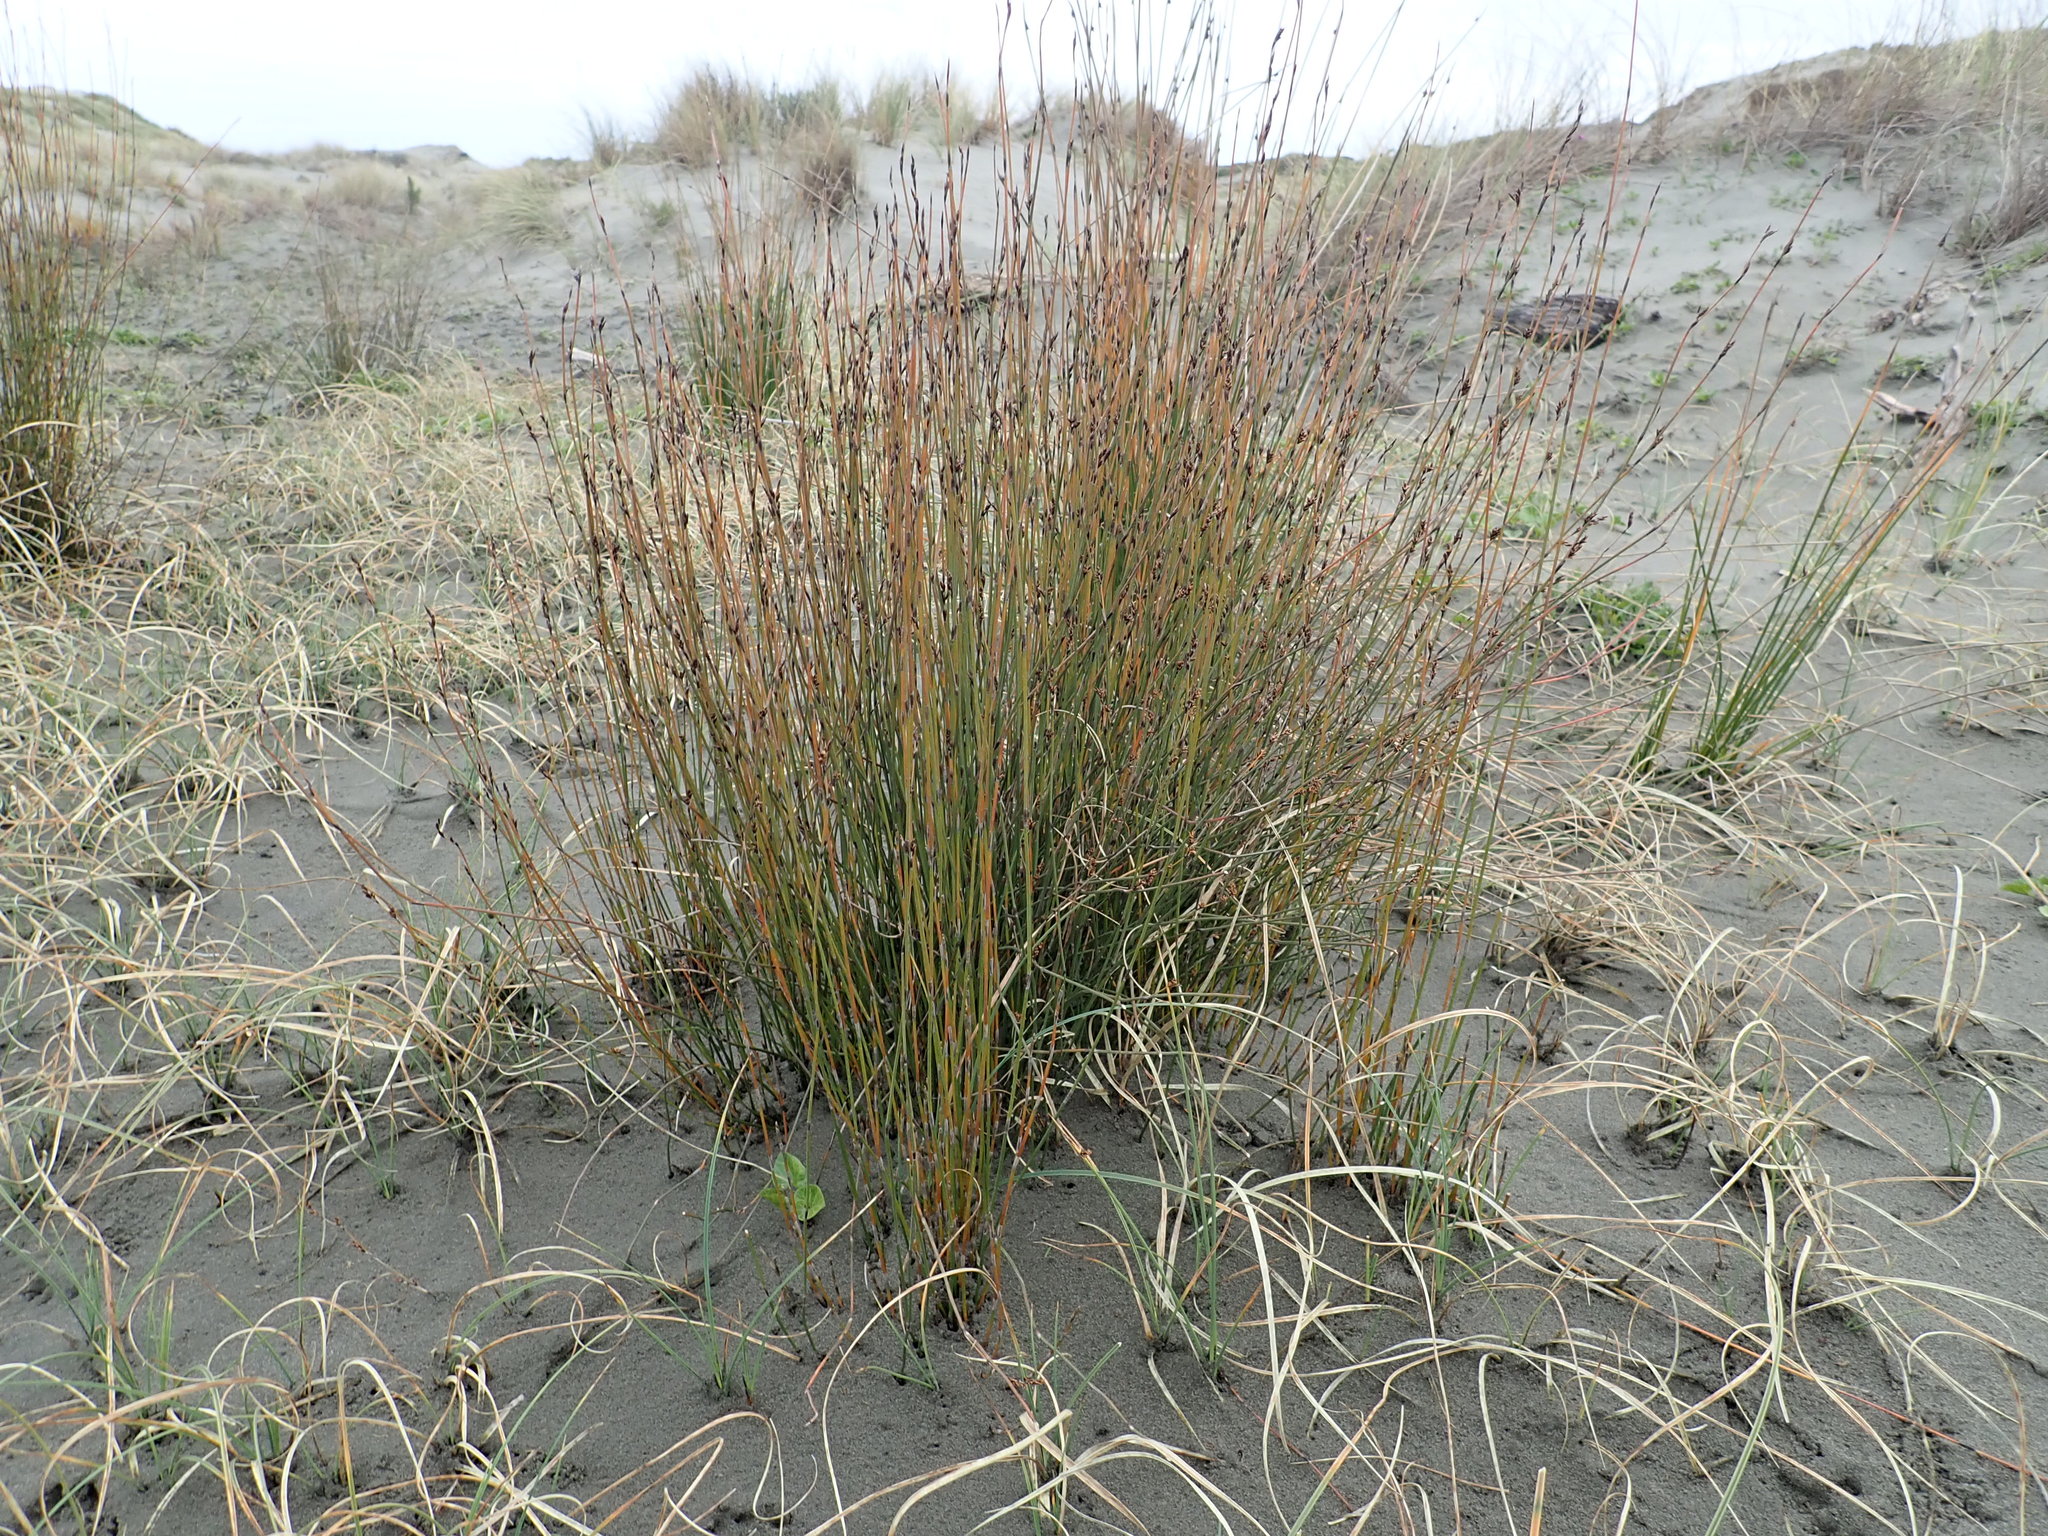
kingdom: Plantae
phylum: Tracheophyta
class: Liliopsida
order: Poales
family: Restionaceae
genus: Apodasmia
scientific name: Apodasmia similis
